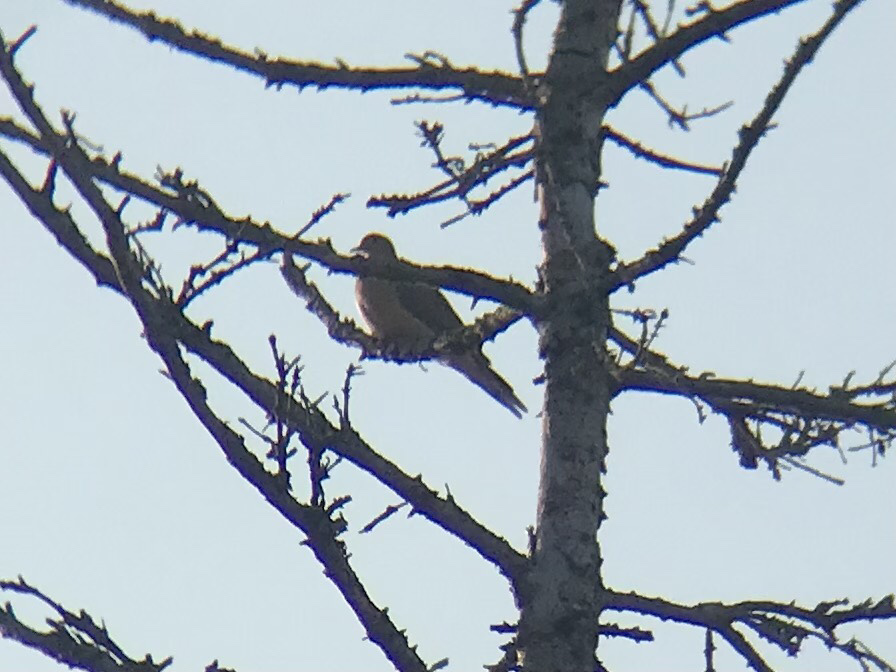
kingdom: Animalia
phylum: Chordata
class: Aves
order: Columbiformes
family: Columbidae
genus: Zenaida
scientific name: Zenaida macroura
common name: Mourning dove
